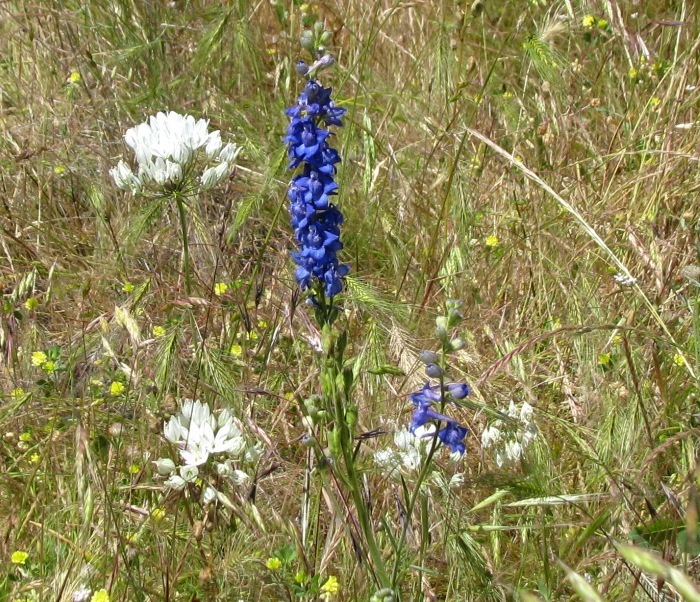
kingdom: Plantae
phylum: Tracheophyta
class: Magnoliopsida
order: Ranunculales
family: Ranunculaceae
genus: Delphinium
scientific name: Delphinium distichum
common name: Meadow larkspur
